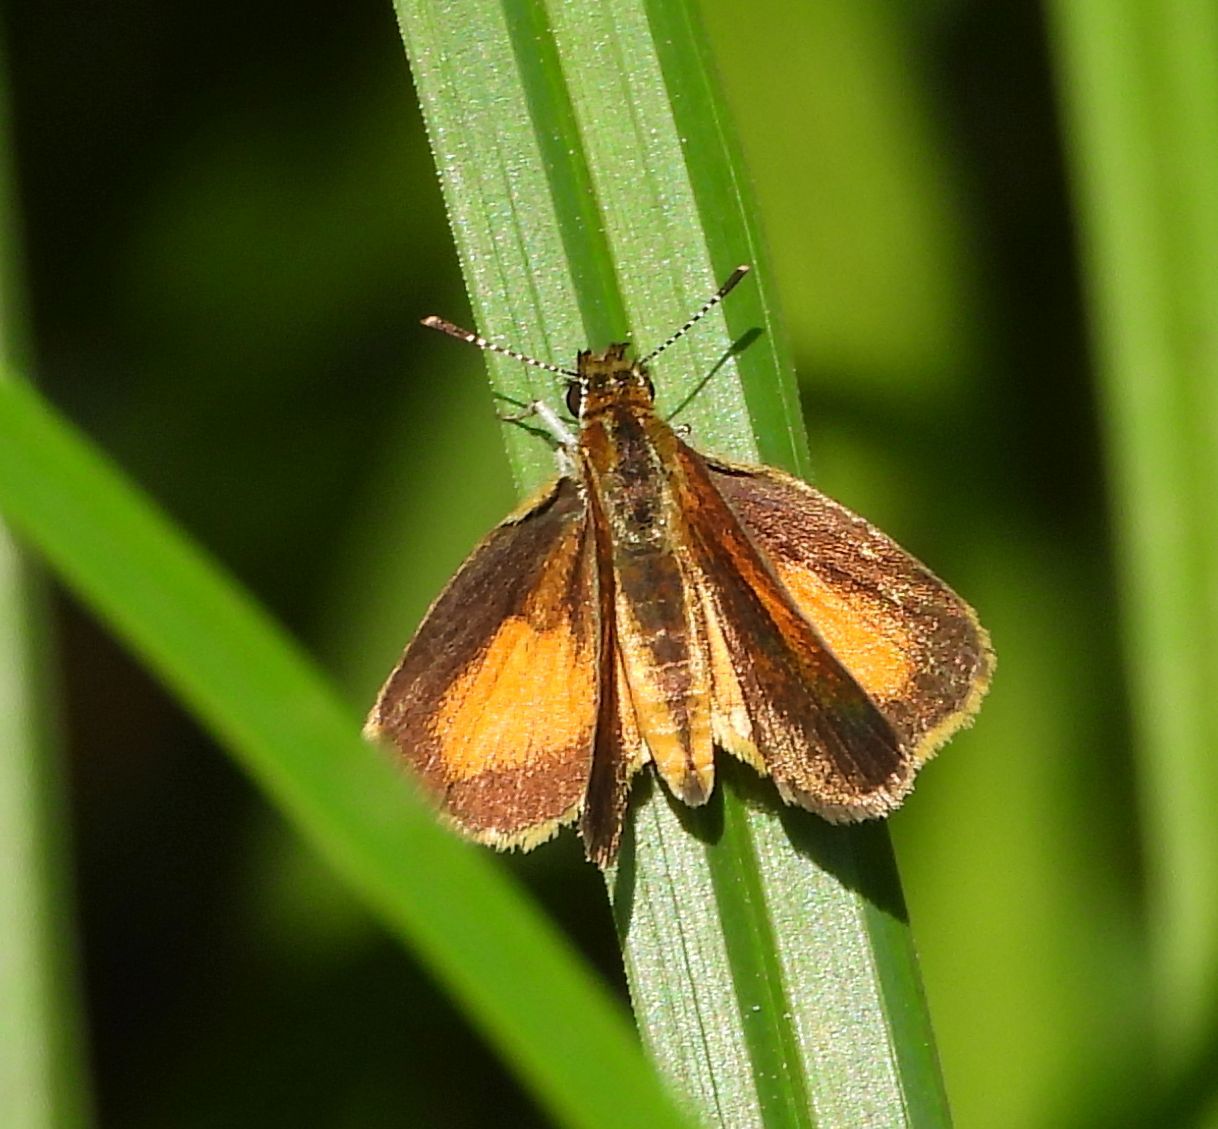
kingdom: Animalia
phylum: Arthropoda
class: Insecta
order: Lepidoptera
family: Hesperiidae
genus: Ancyloxypha
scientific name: Ancyloxypha numitor
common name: Least skipper
